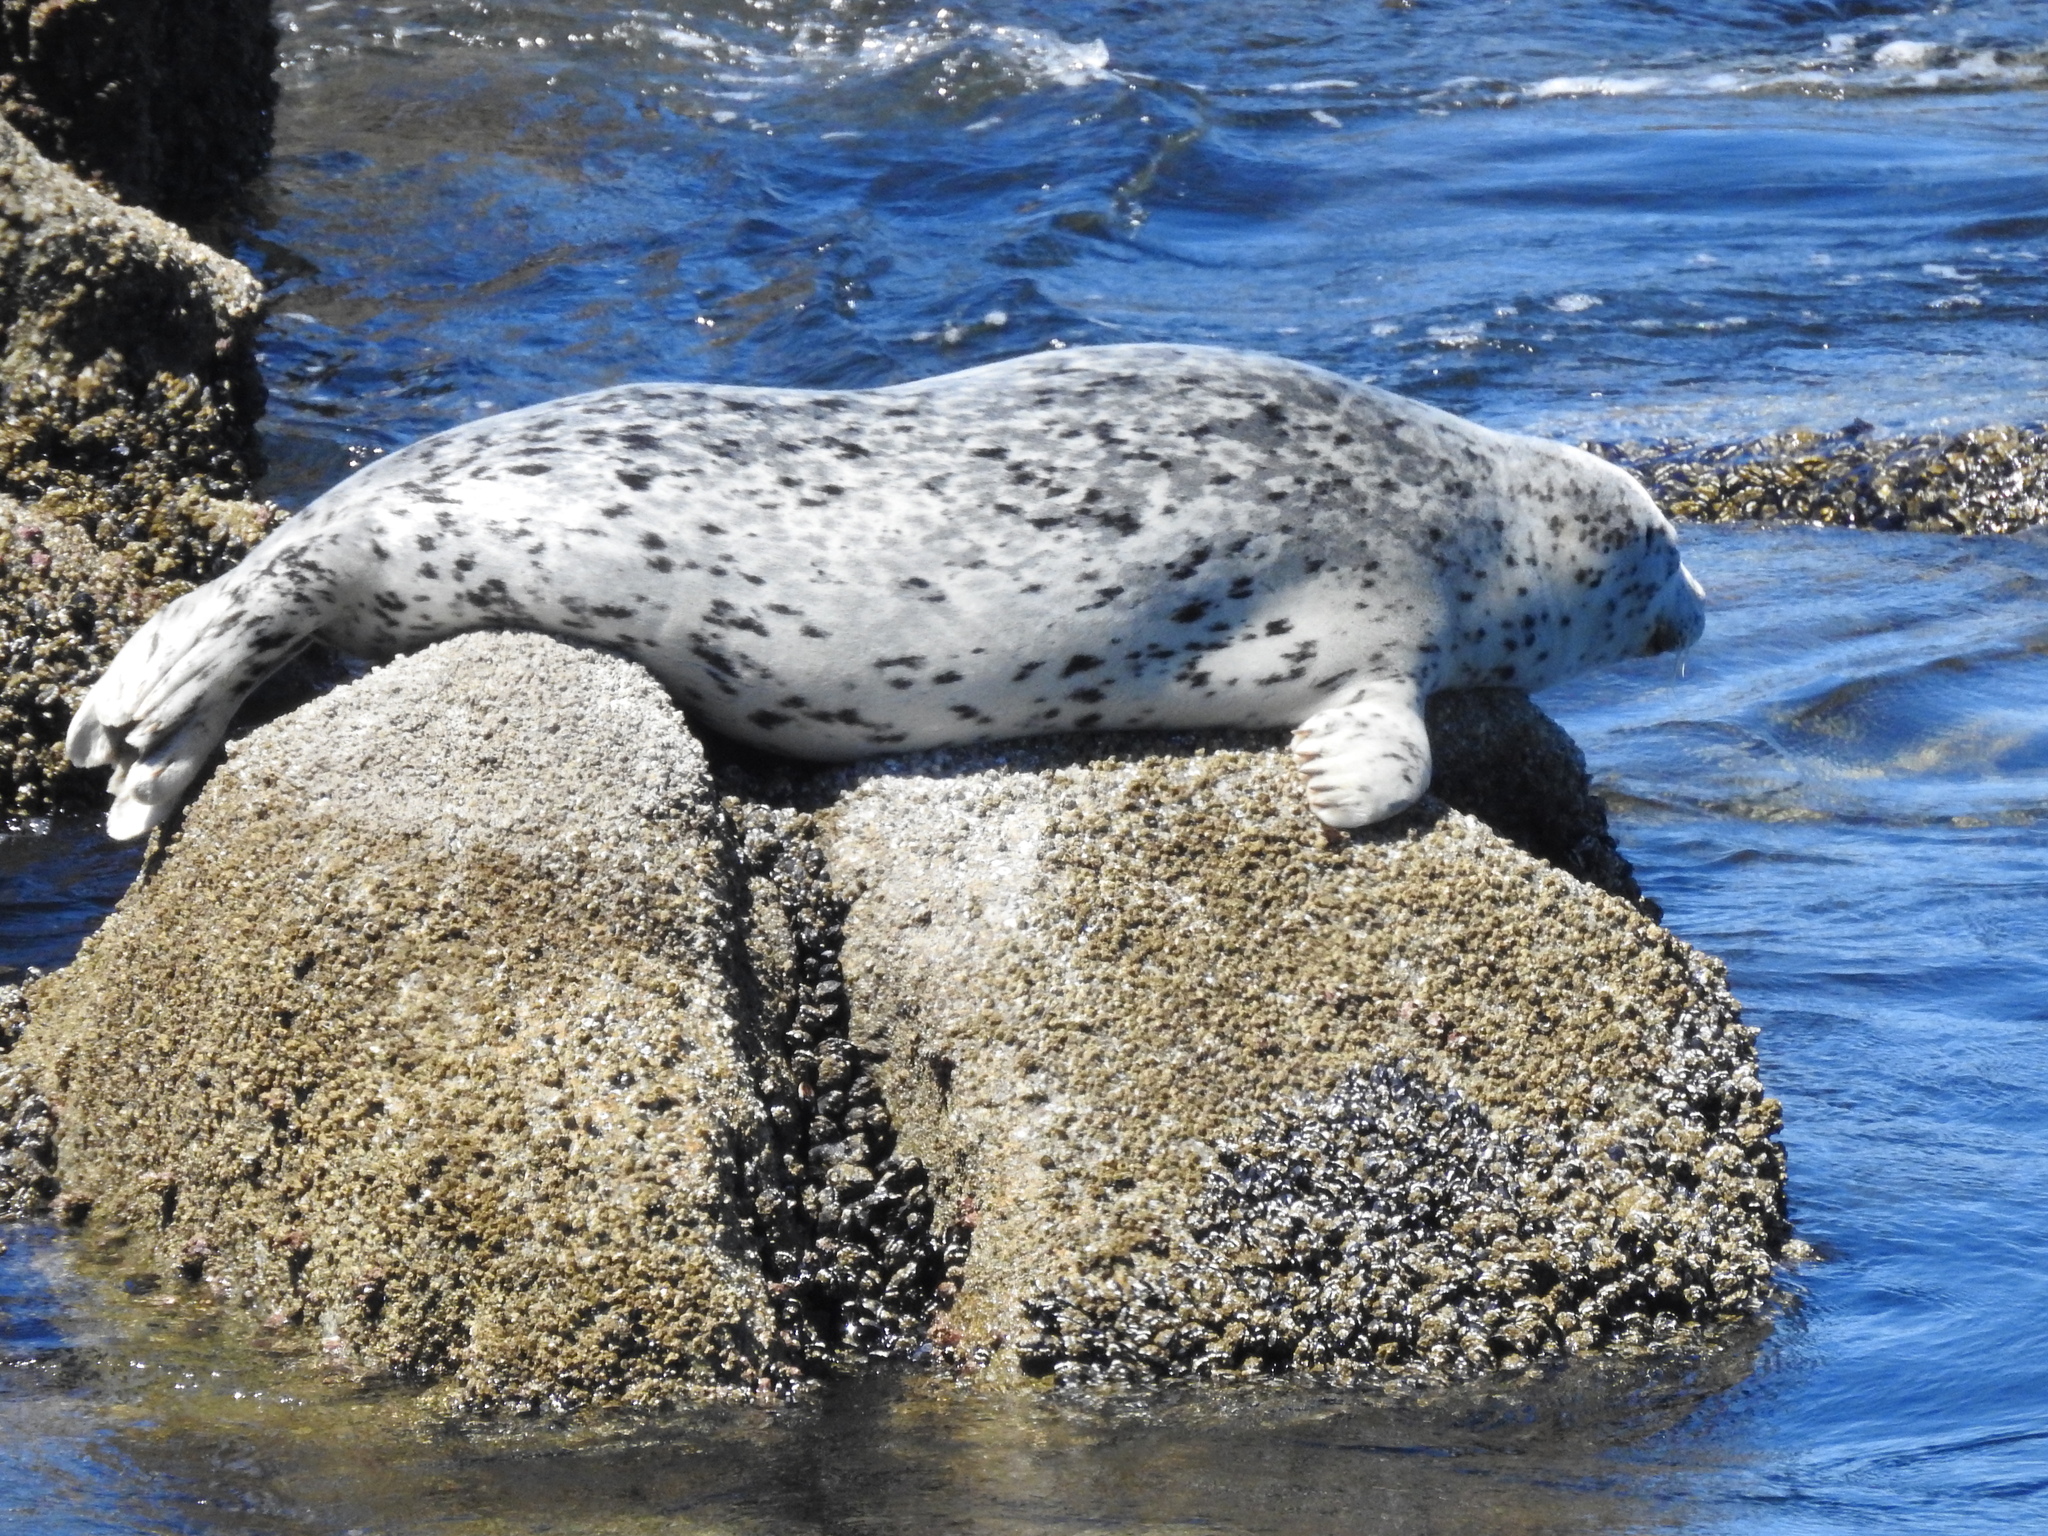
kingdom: Animalia
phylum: Chordata
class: Mammalia
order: Carnivora
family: Phocidae
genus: Phoca
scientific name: Phoca vitulina
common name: Harbor seal
